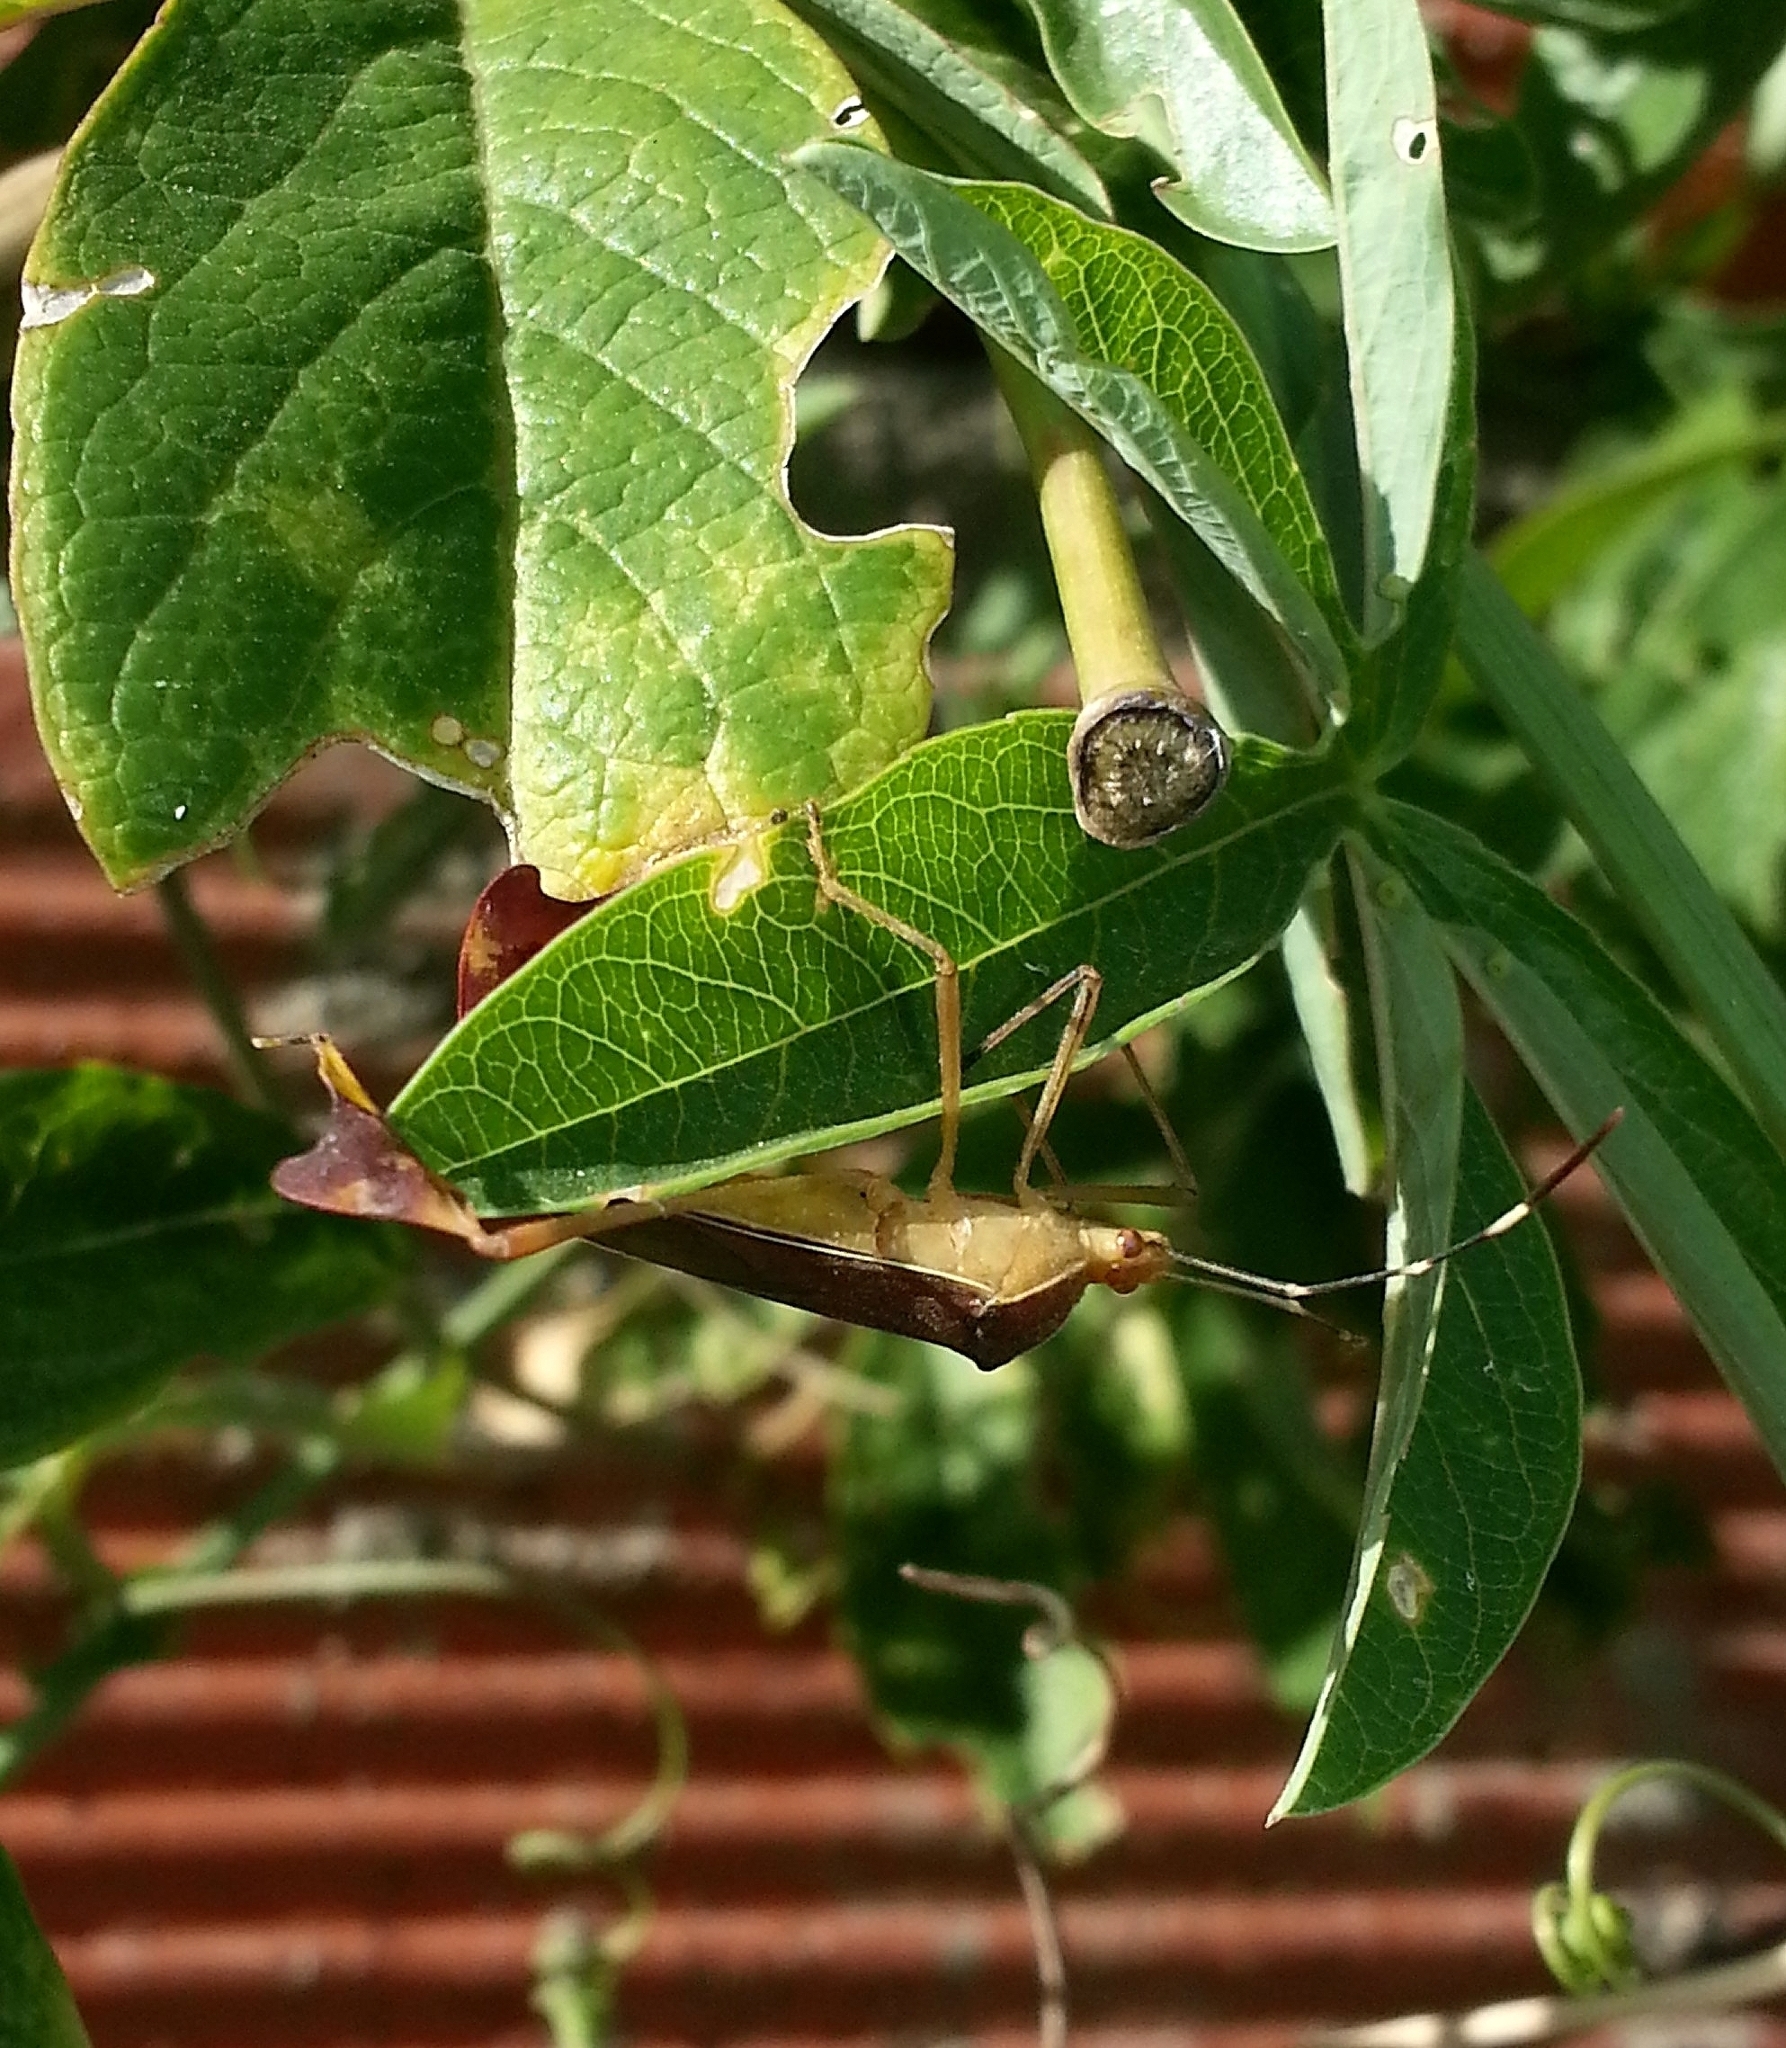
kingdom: Animalia
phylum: Arthropoda
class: Insecta
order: Hemiptera
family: Coreidae
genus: Anisoscelis
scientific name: Anisoscelis marginellus
